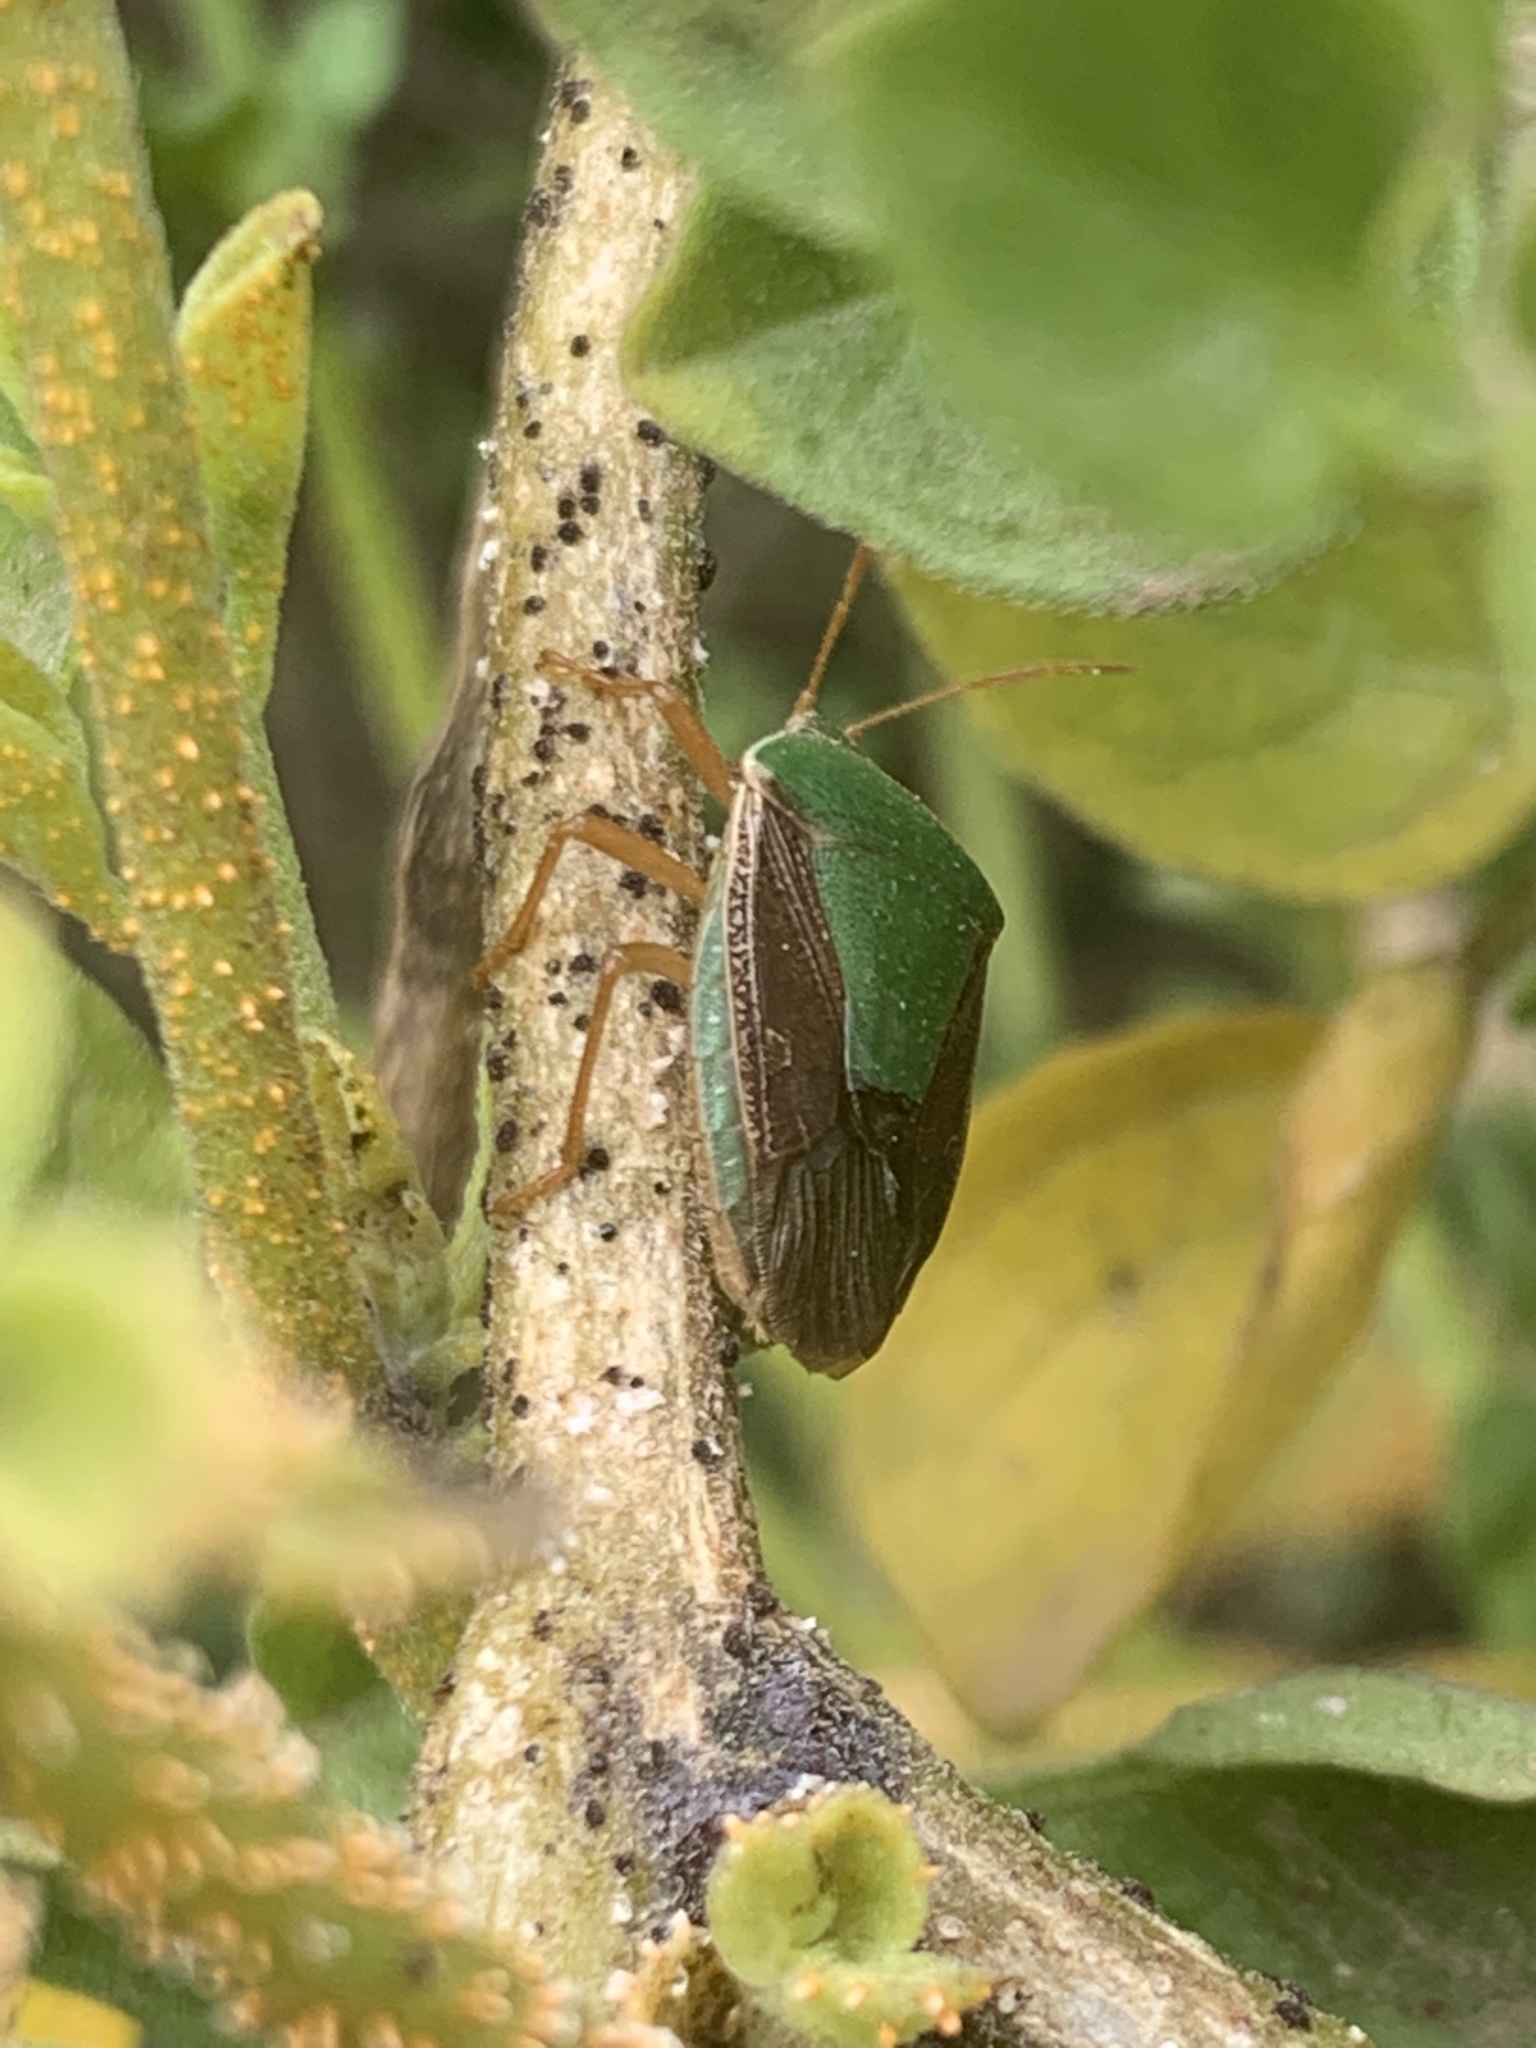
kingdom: Animalia
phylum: Arthropoda
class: Insecta
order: Hemiptera
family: Pentatomidae
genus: Edessa
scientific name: Edessa meditabunda
